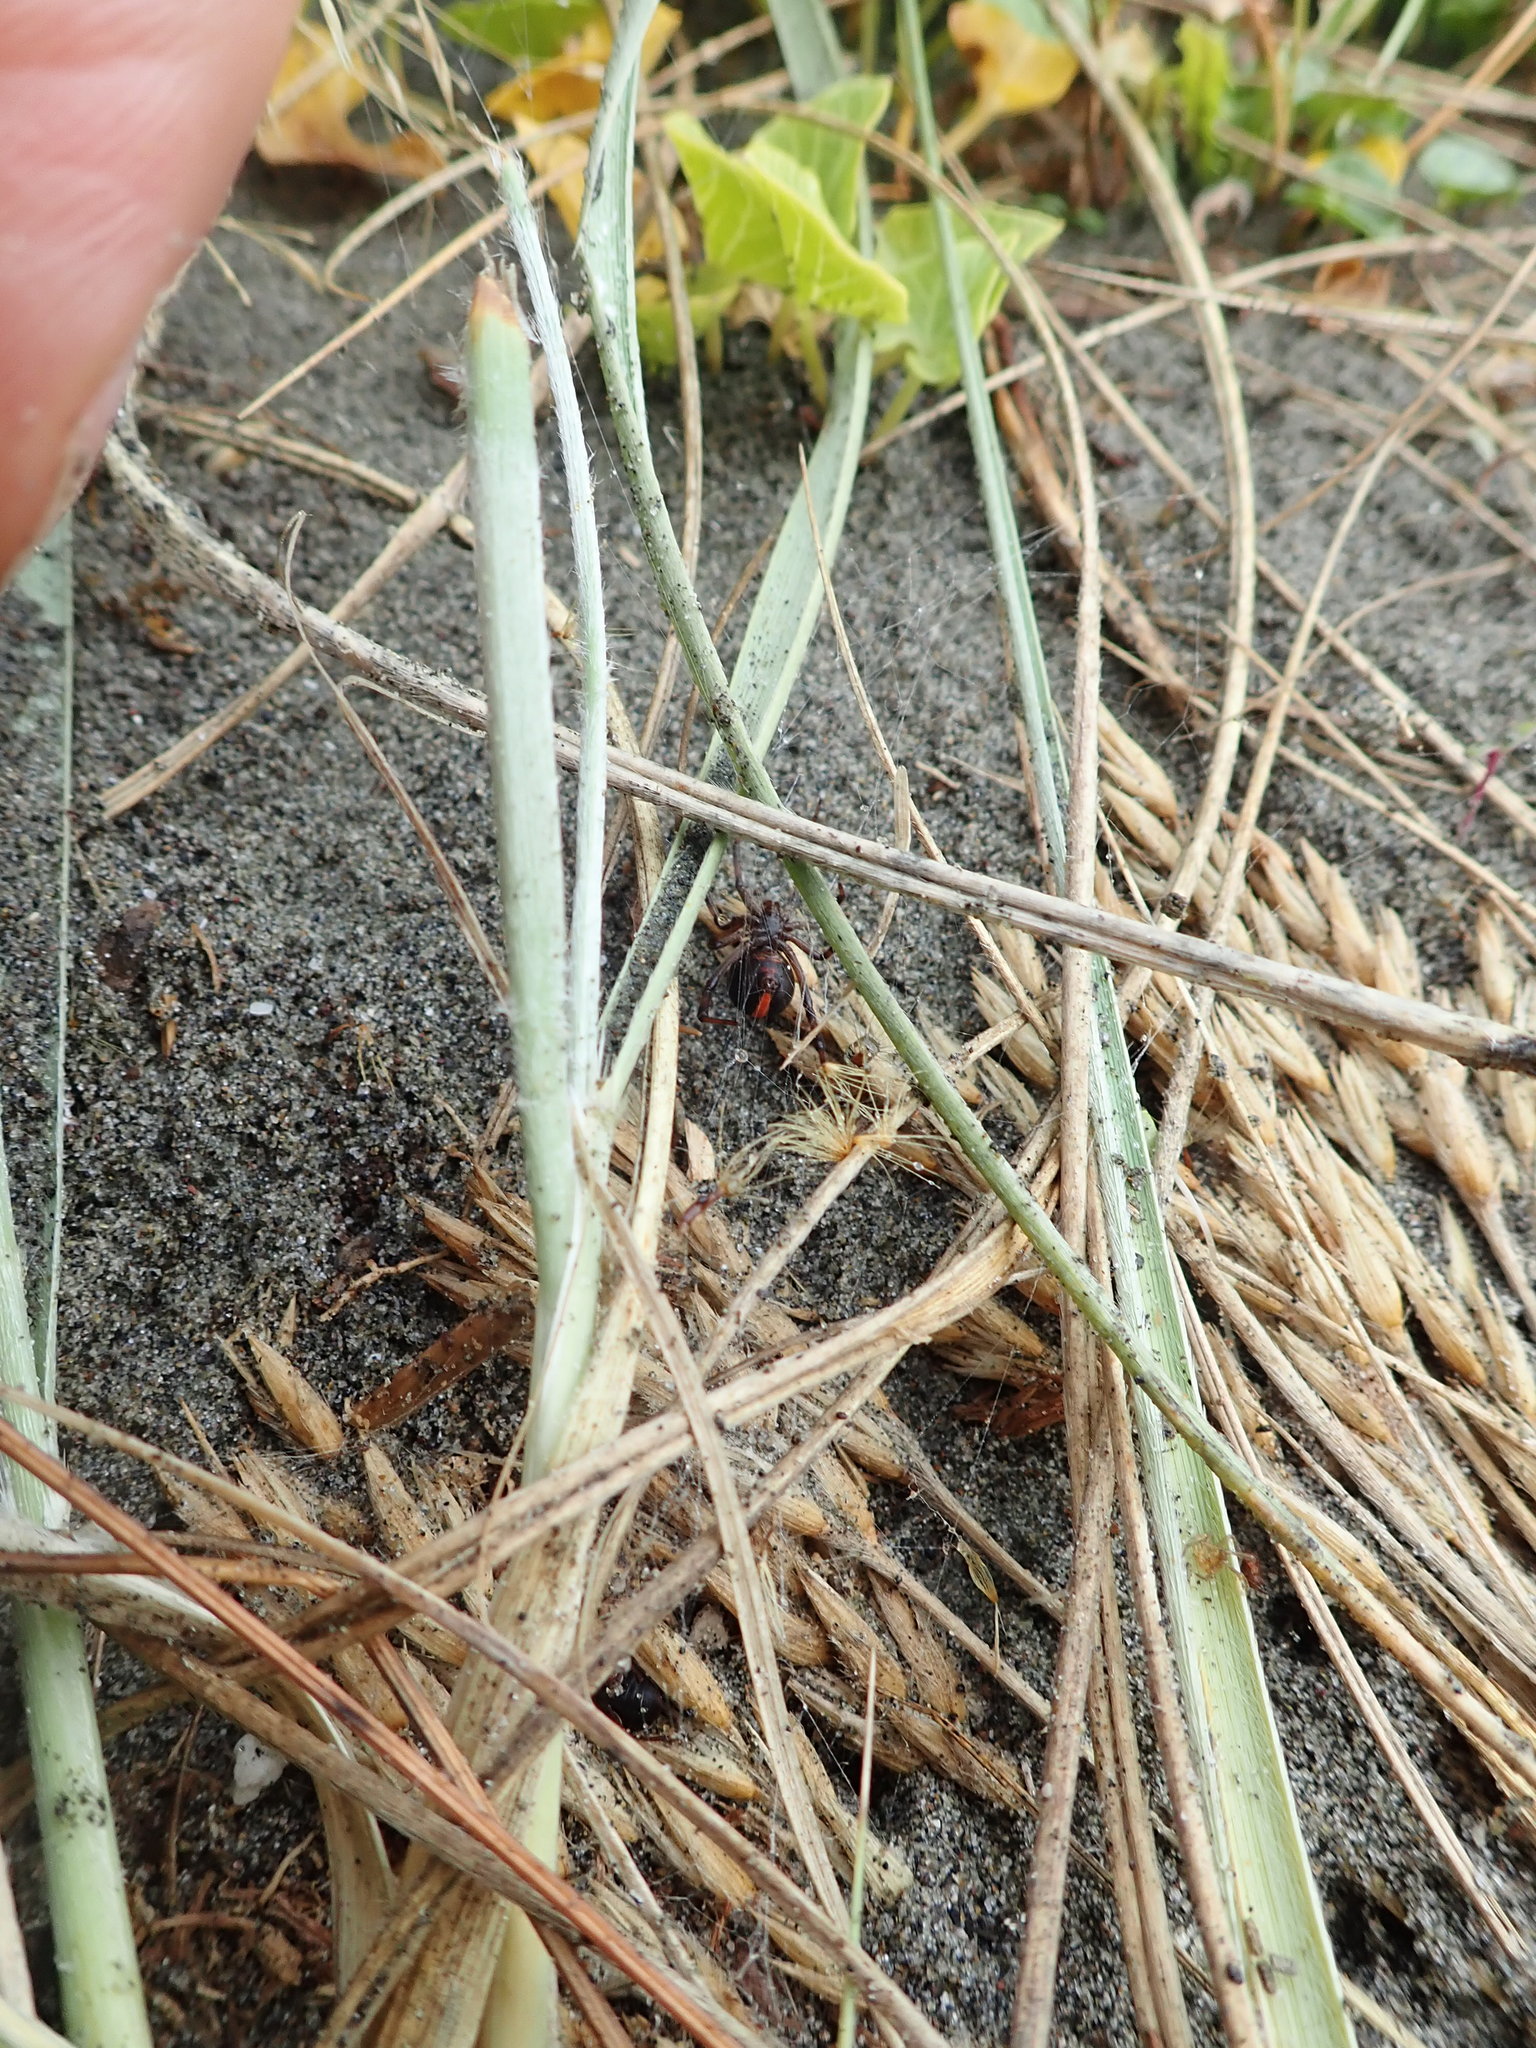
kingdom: Animalia
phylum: Arthropoda
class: Arachnida
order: Araneae
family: Theridiidae
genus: Latrodectus
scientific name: Latrodectus katipo
